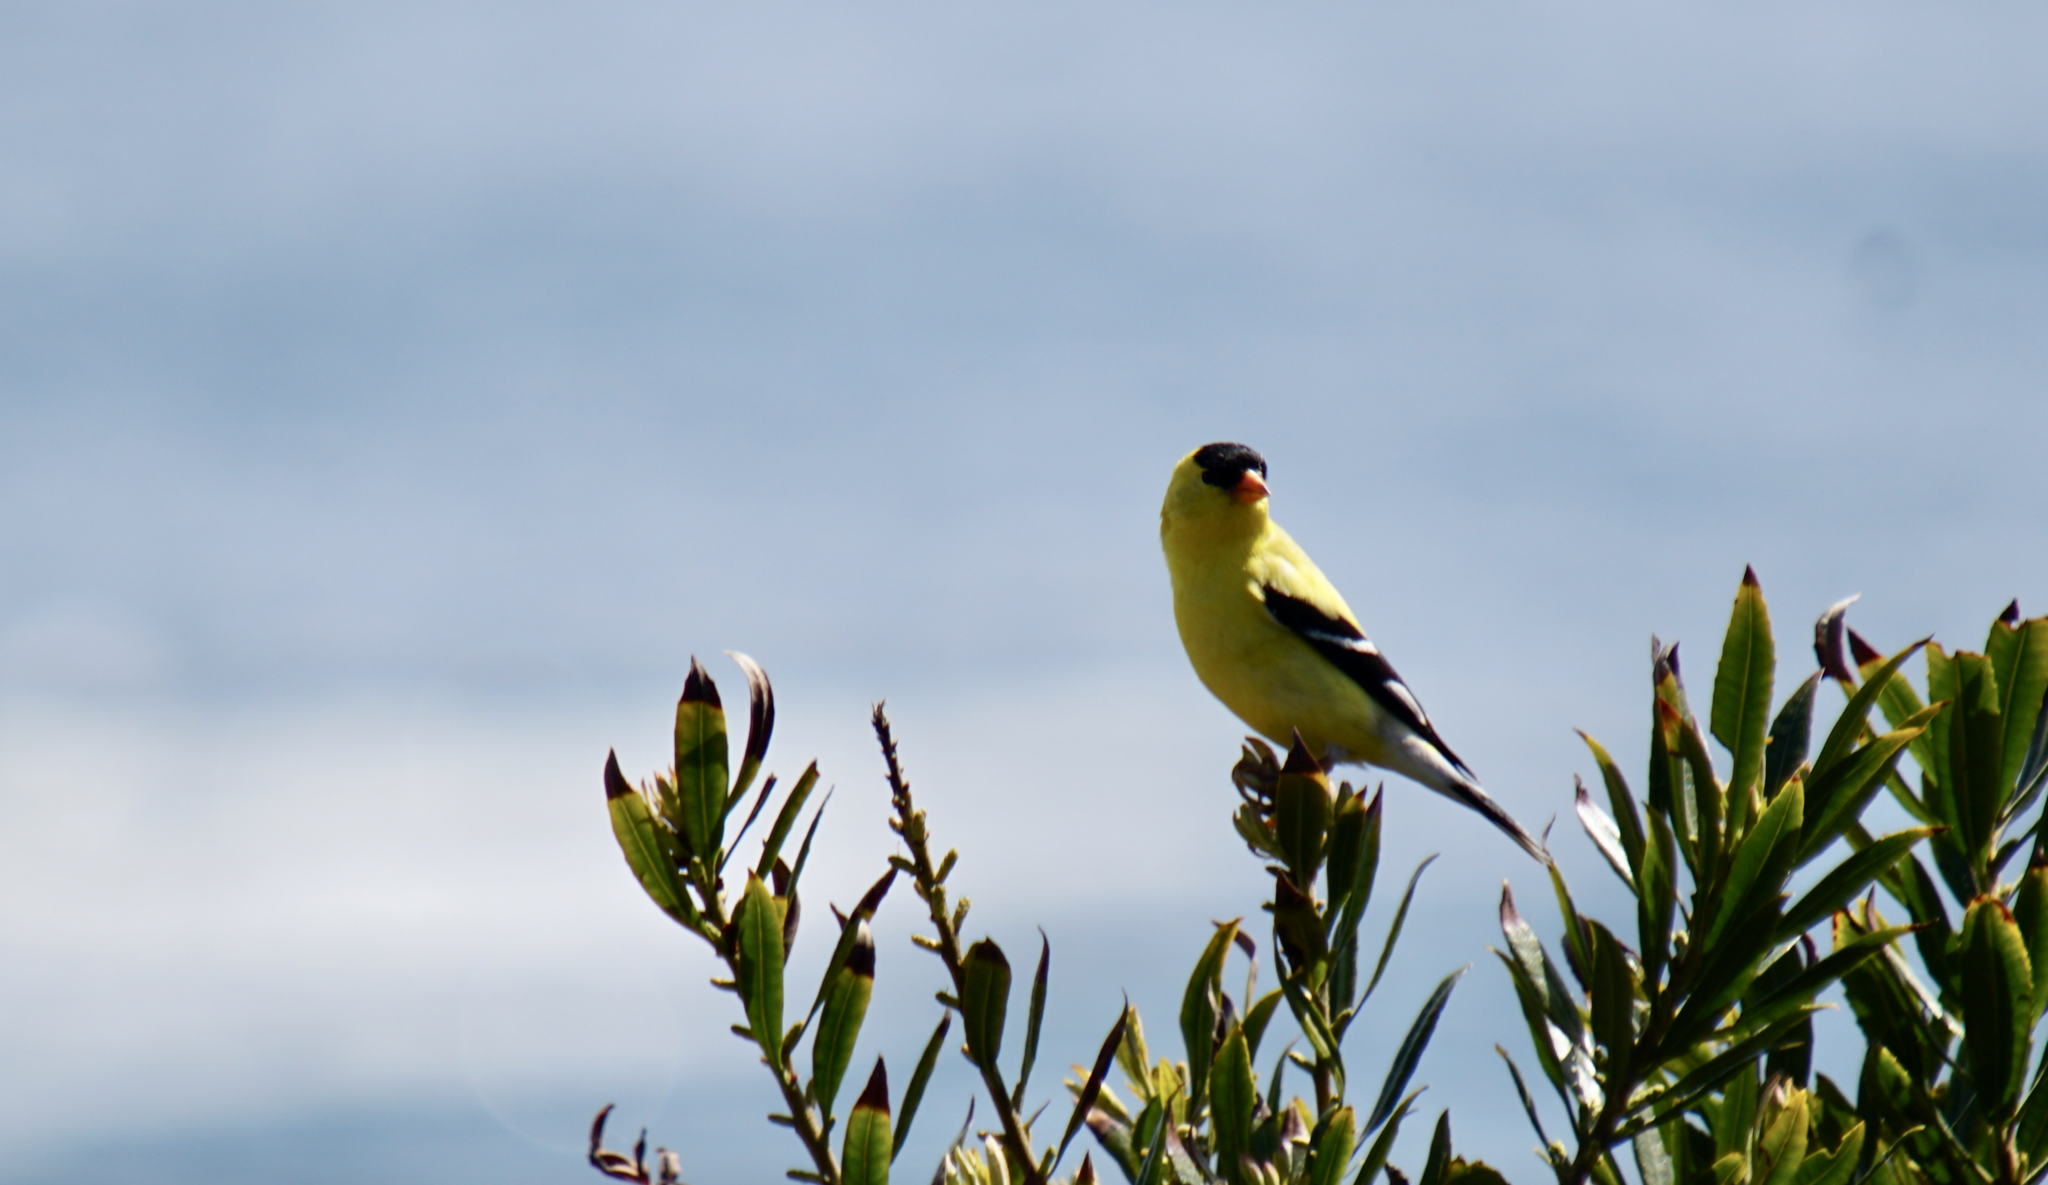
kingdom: Animalia
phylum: Chordata
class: Aves
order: Passeriformes
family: Fringillidae
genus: Spinus
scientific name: Spinus tristis
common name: American goldfinch
